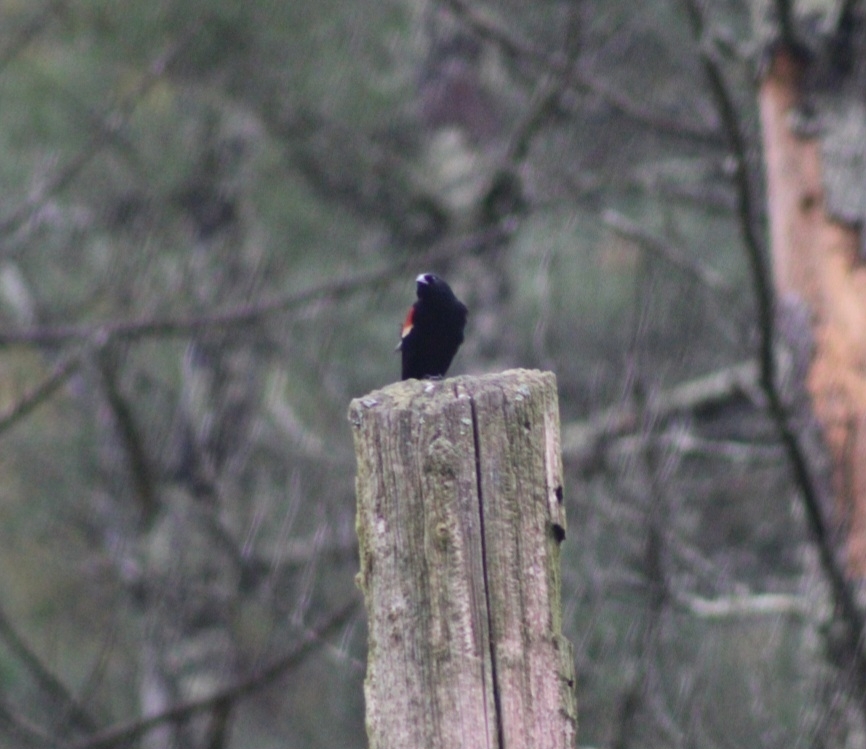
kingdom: Animalia
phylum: Chordata
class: Aves
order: Passeriformes
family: Icteridae
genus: Agelaius
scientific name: Agelaius phoeniceus
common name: Red-winged blackbird
